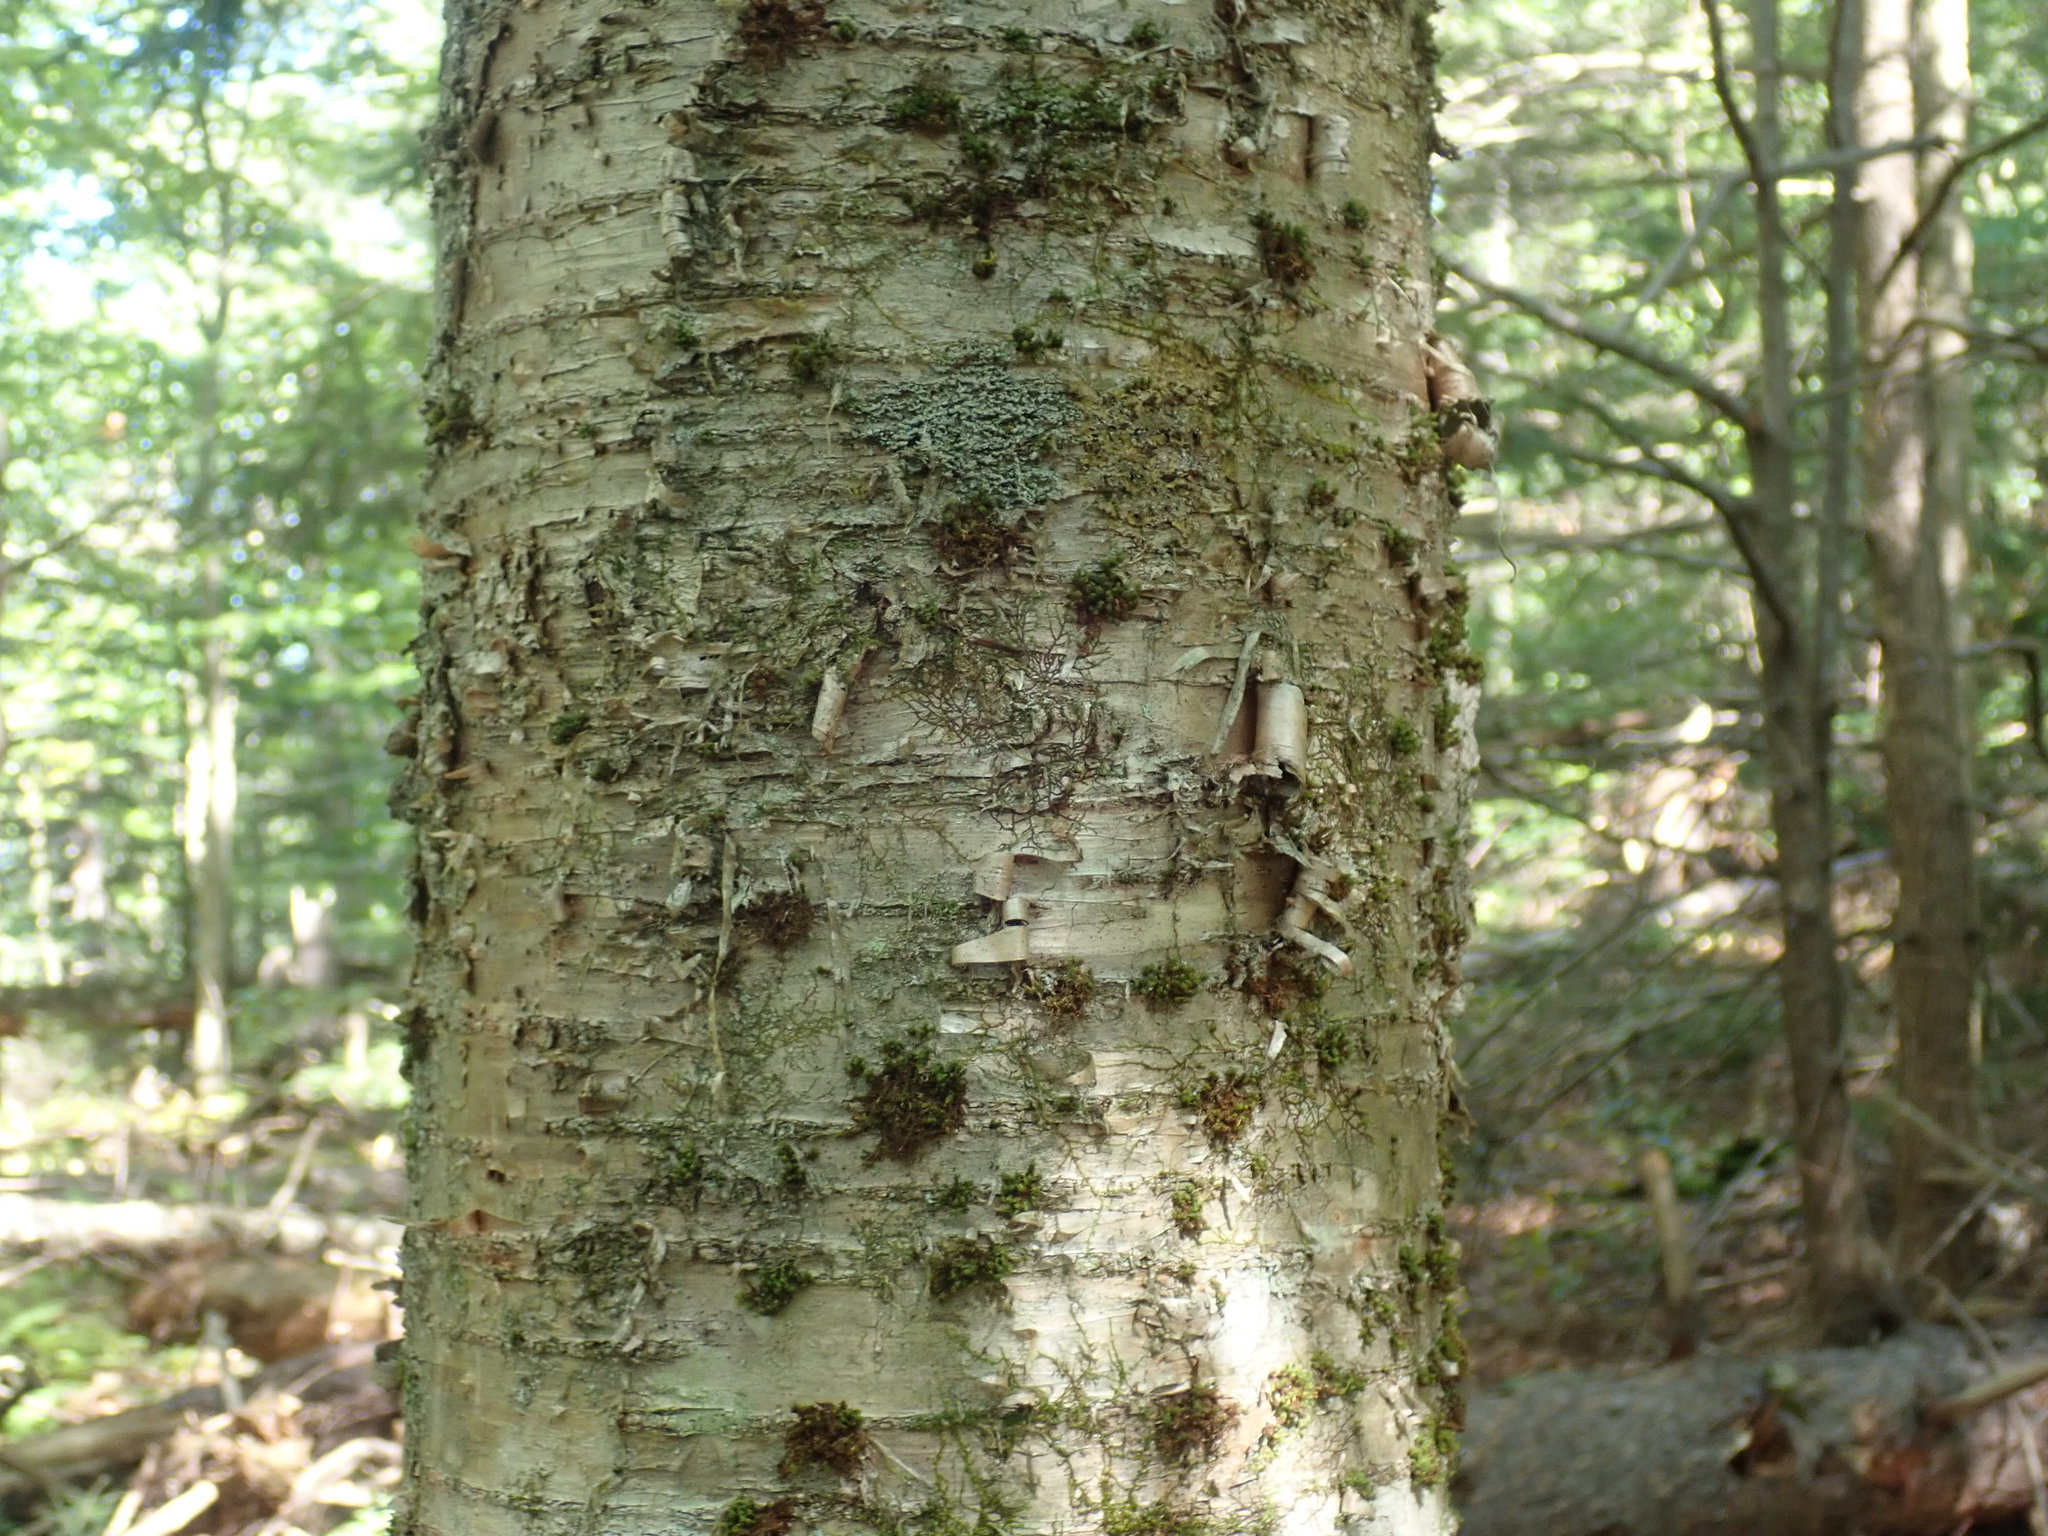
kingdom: Plantae
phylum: Tracheophyta
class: Magnoliopsida
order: Fagales
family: Betulaceae
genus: Betula
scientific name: Betula alleghaniensis
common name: Yellow birch
